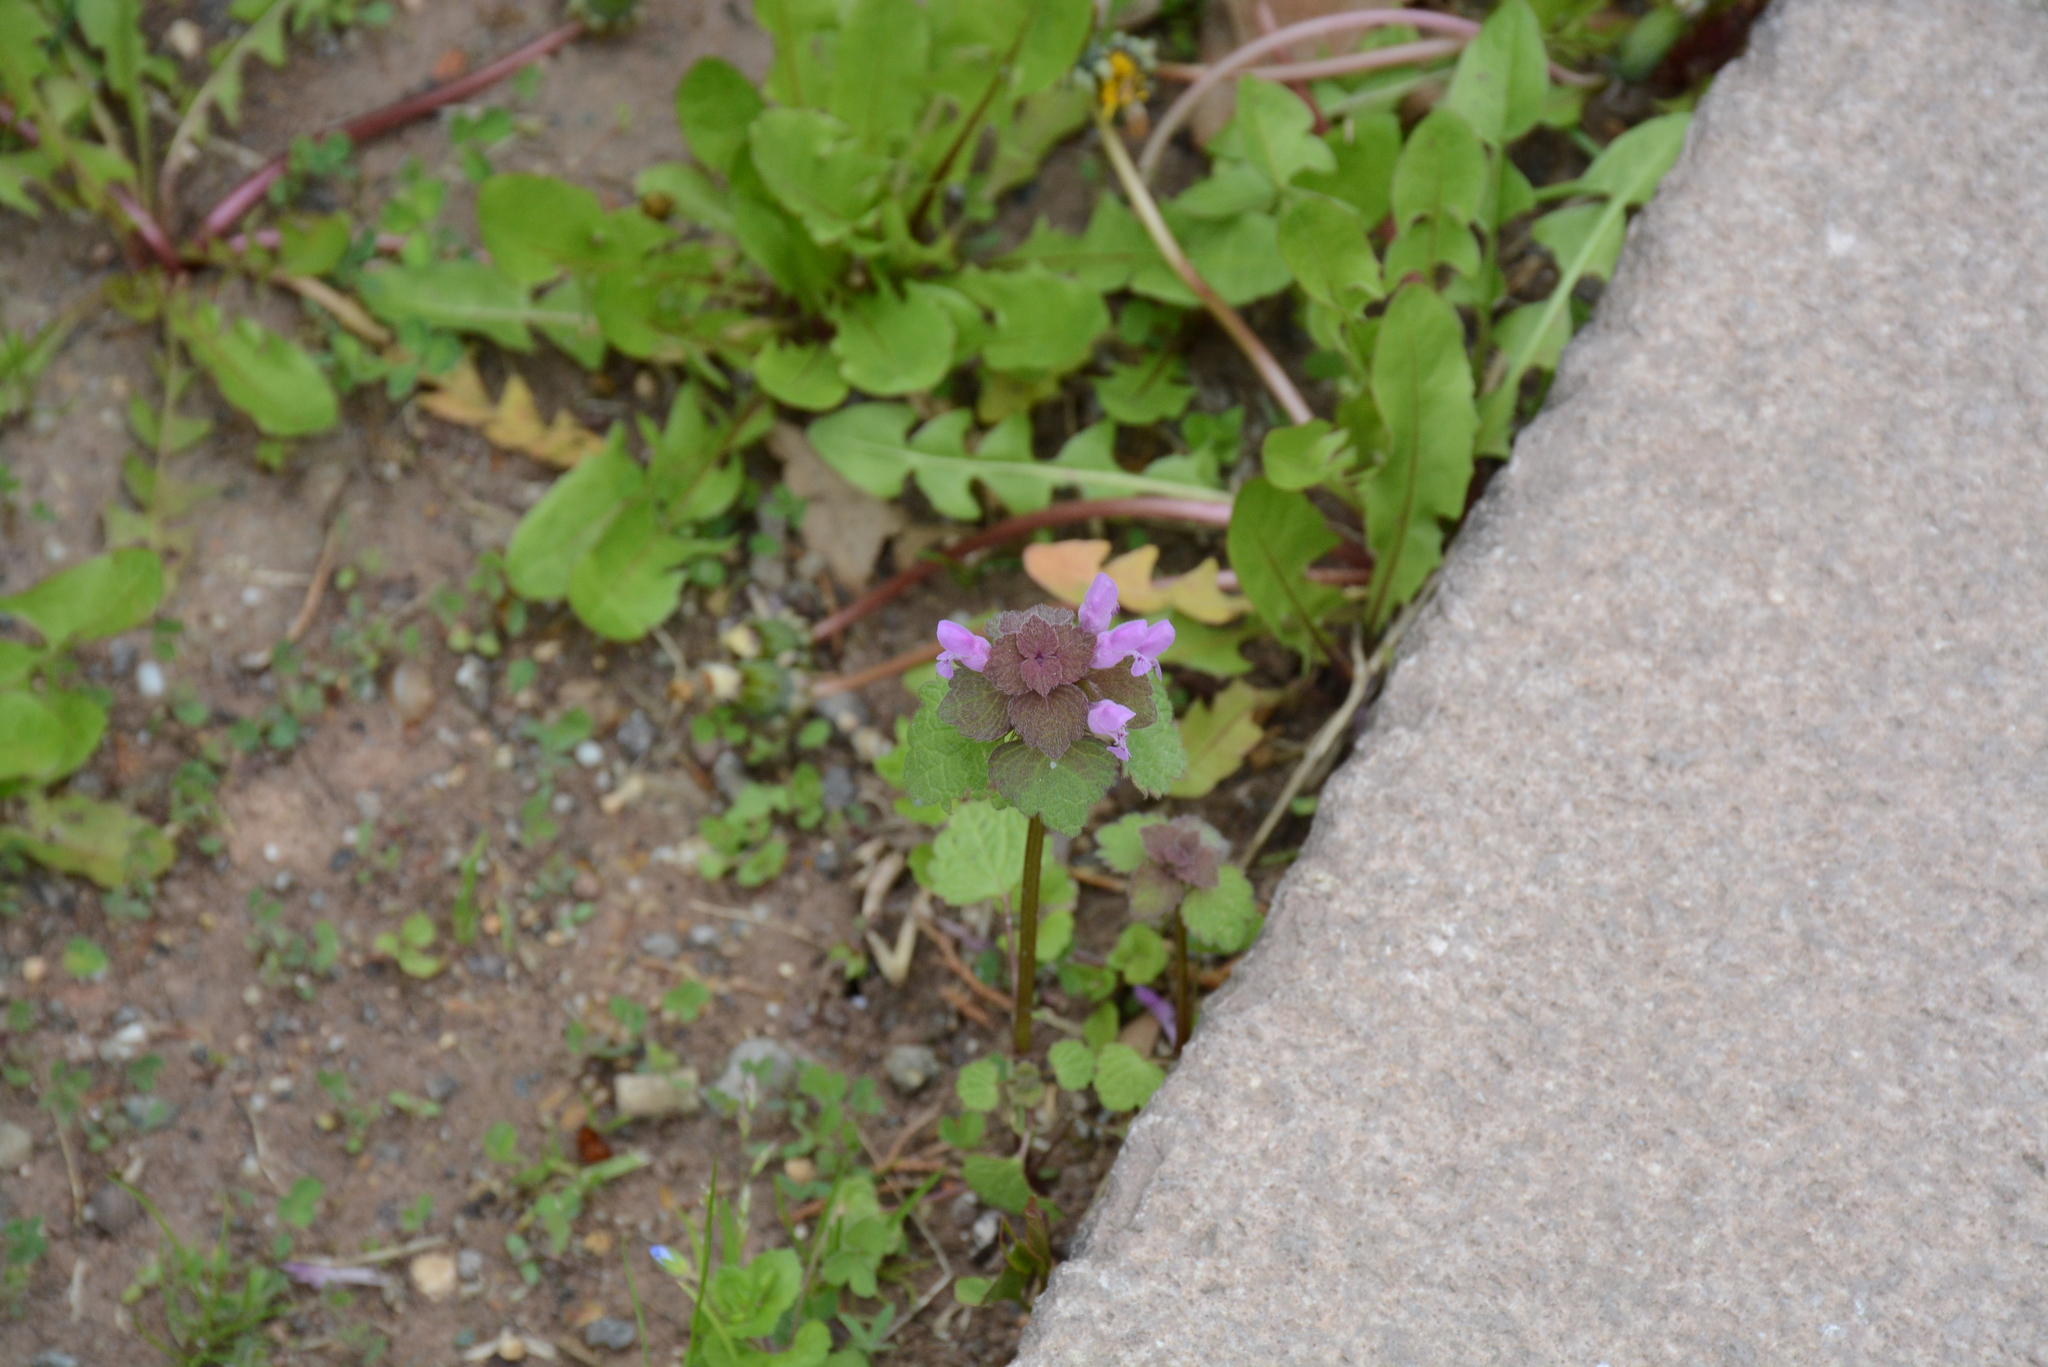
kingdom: Plantae
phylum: Tracheophyta
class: Magnoliopsida
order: Lamiales
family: Lamiaceae
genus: Lamium
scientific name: Lamium purpureum
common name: Red dead-nettle
